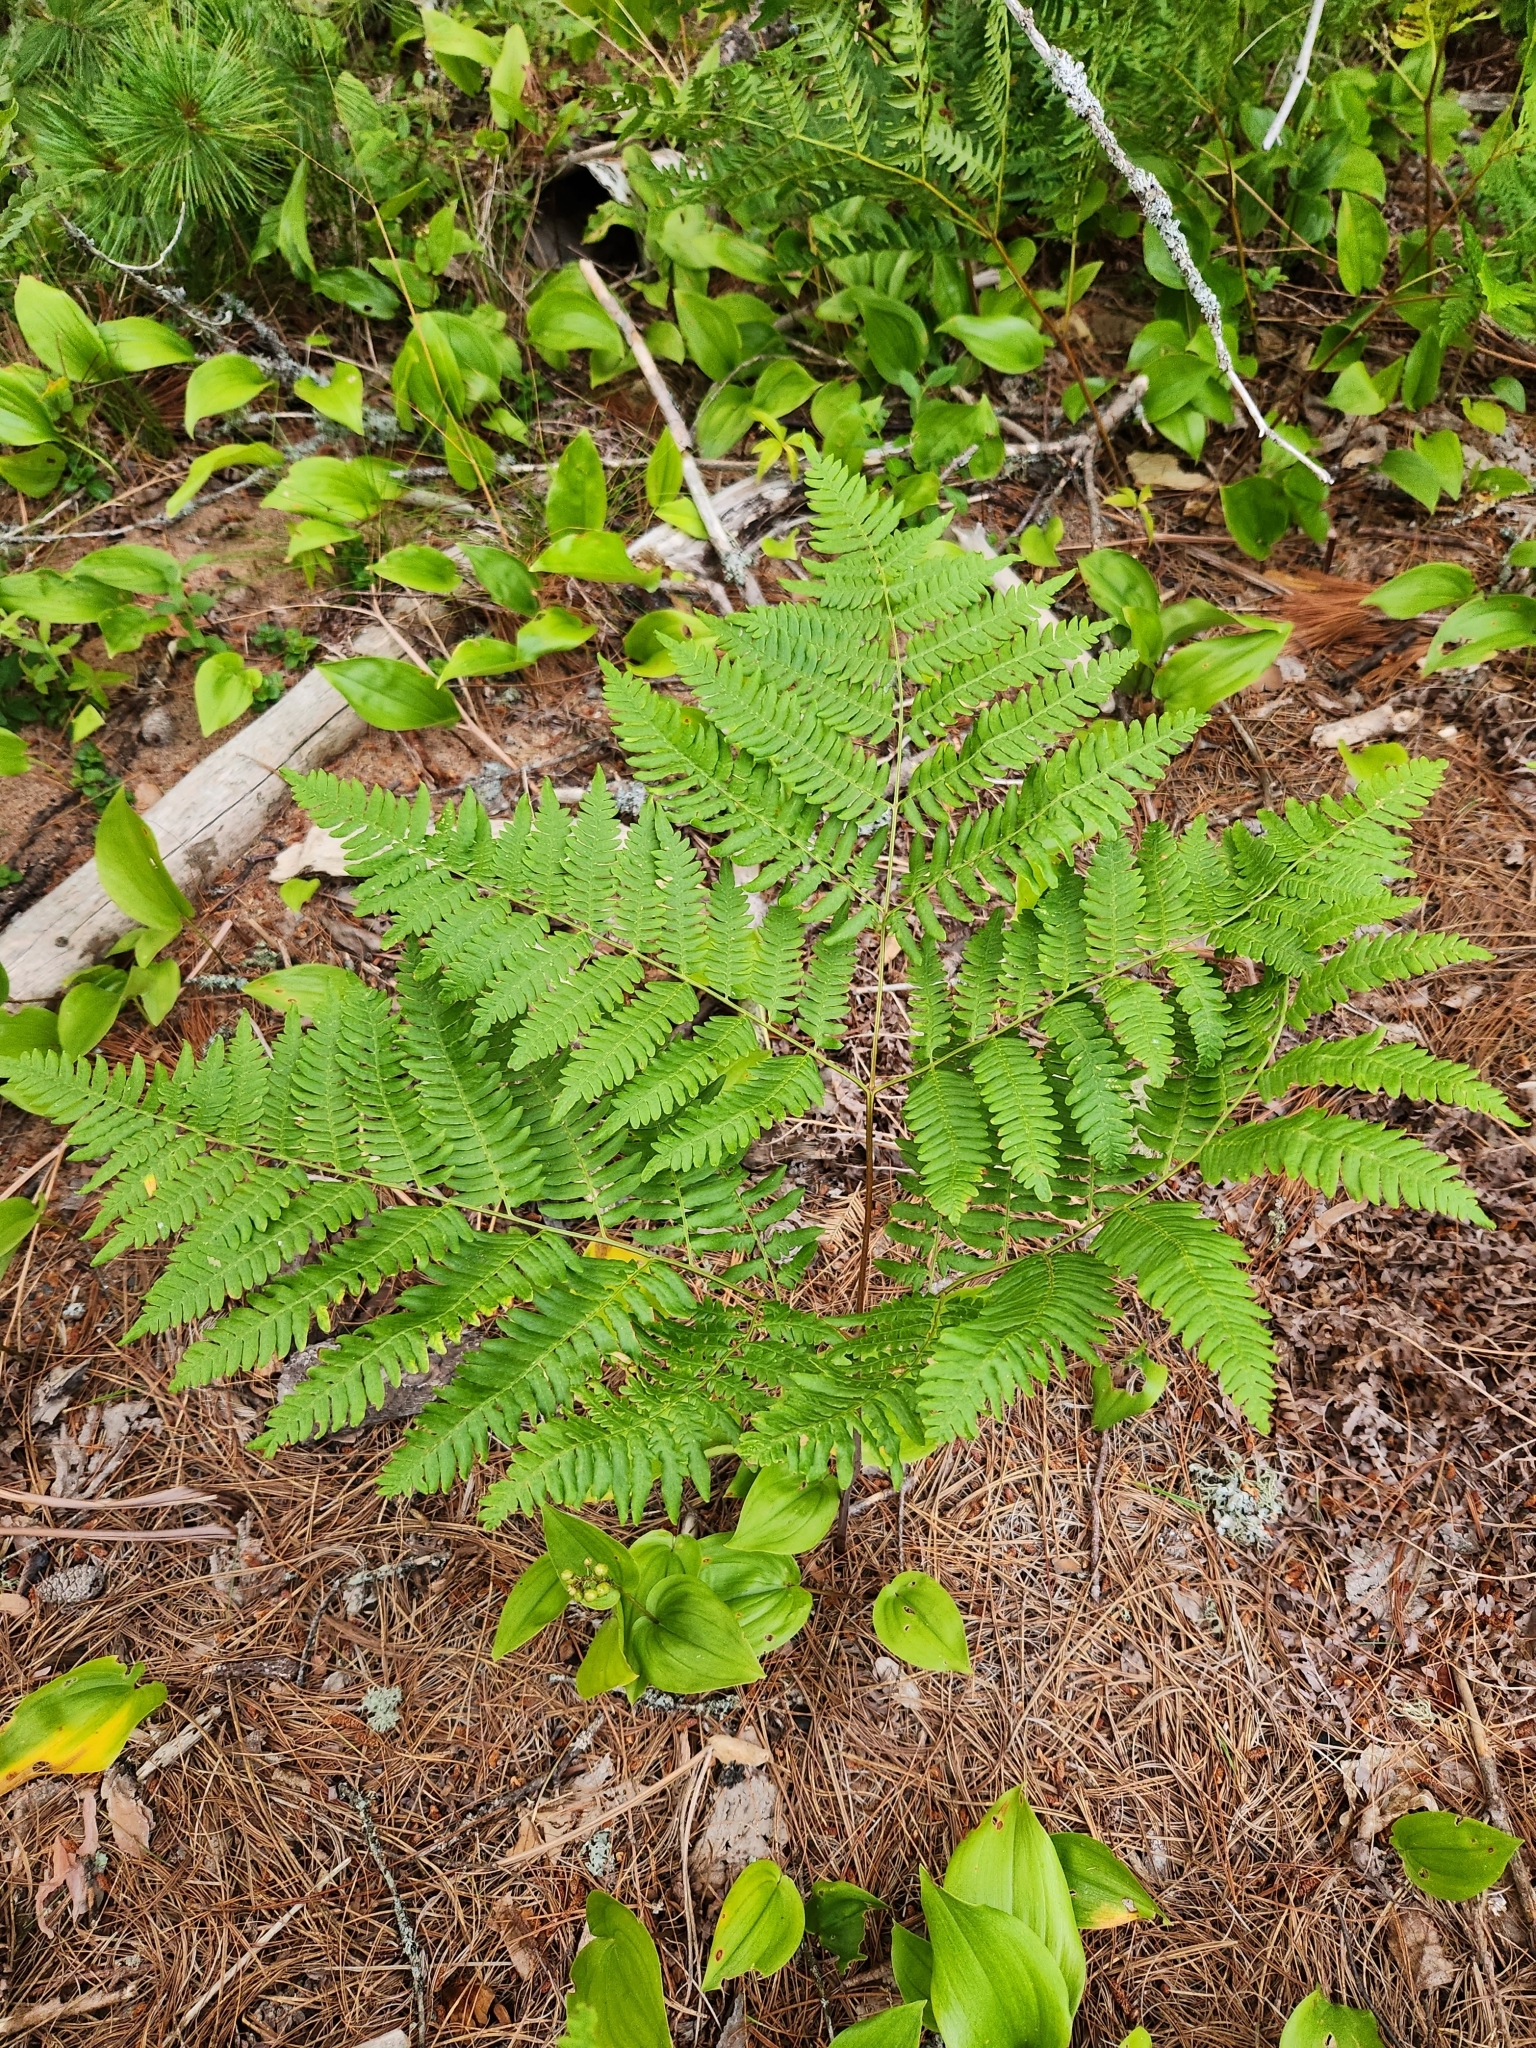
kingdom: Plantae
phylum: Tracheophyta
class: Polypodiopsida
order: Polypodiales
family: Dennstaedtiaceae
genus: Pteridium
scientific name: Pteridium aquilinum
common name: Bracken
